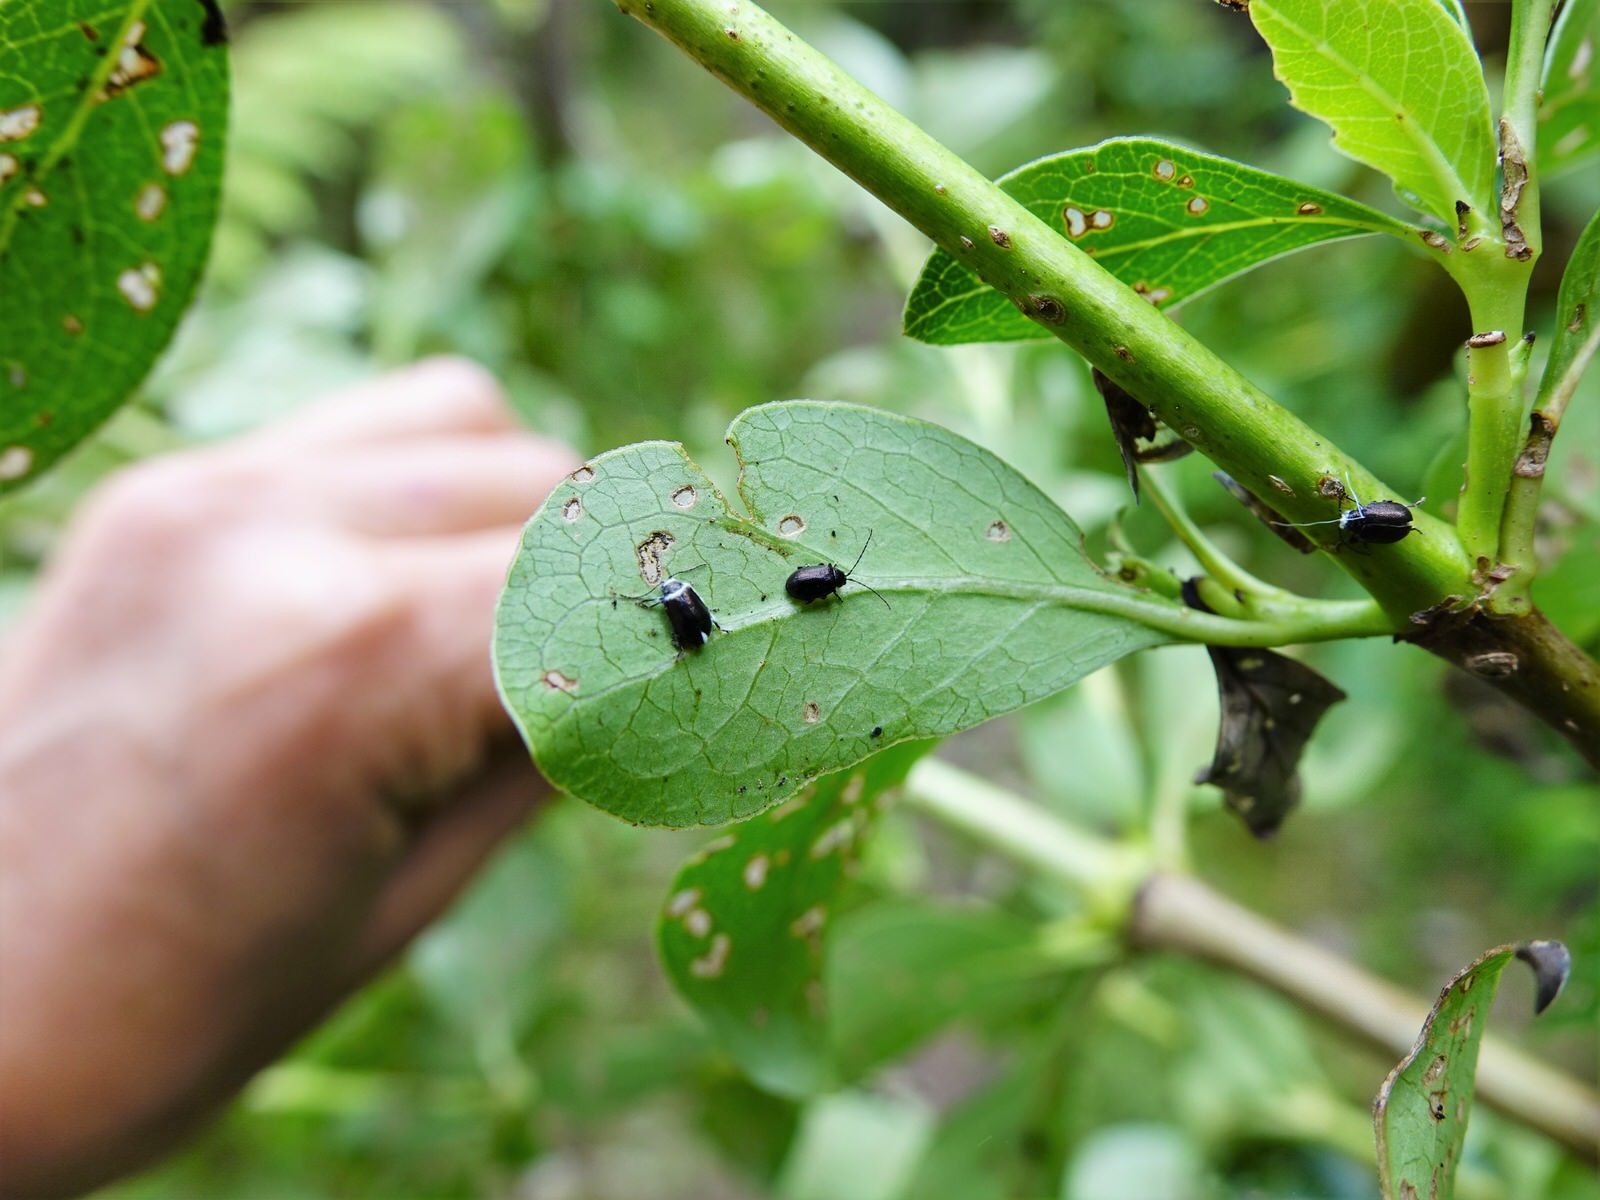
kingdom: Animalia
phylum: Arthropoda
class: Insecta
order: Coleoptera
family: Chrysomelidae
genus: Pleuraltica
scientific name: Pleuraltica cyanea
